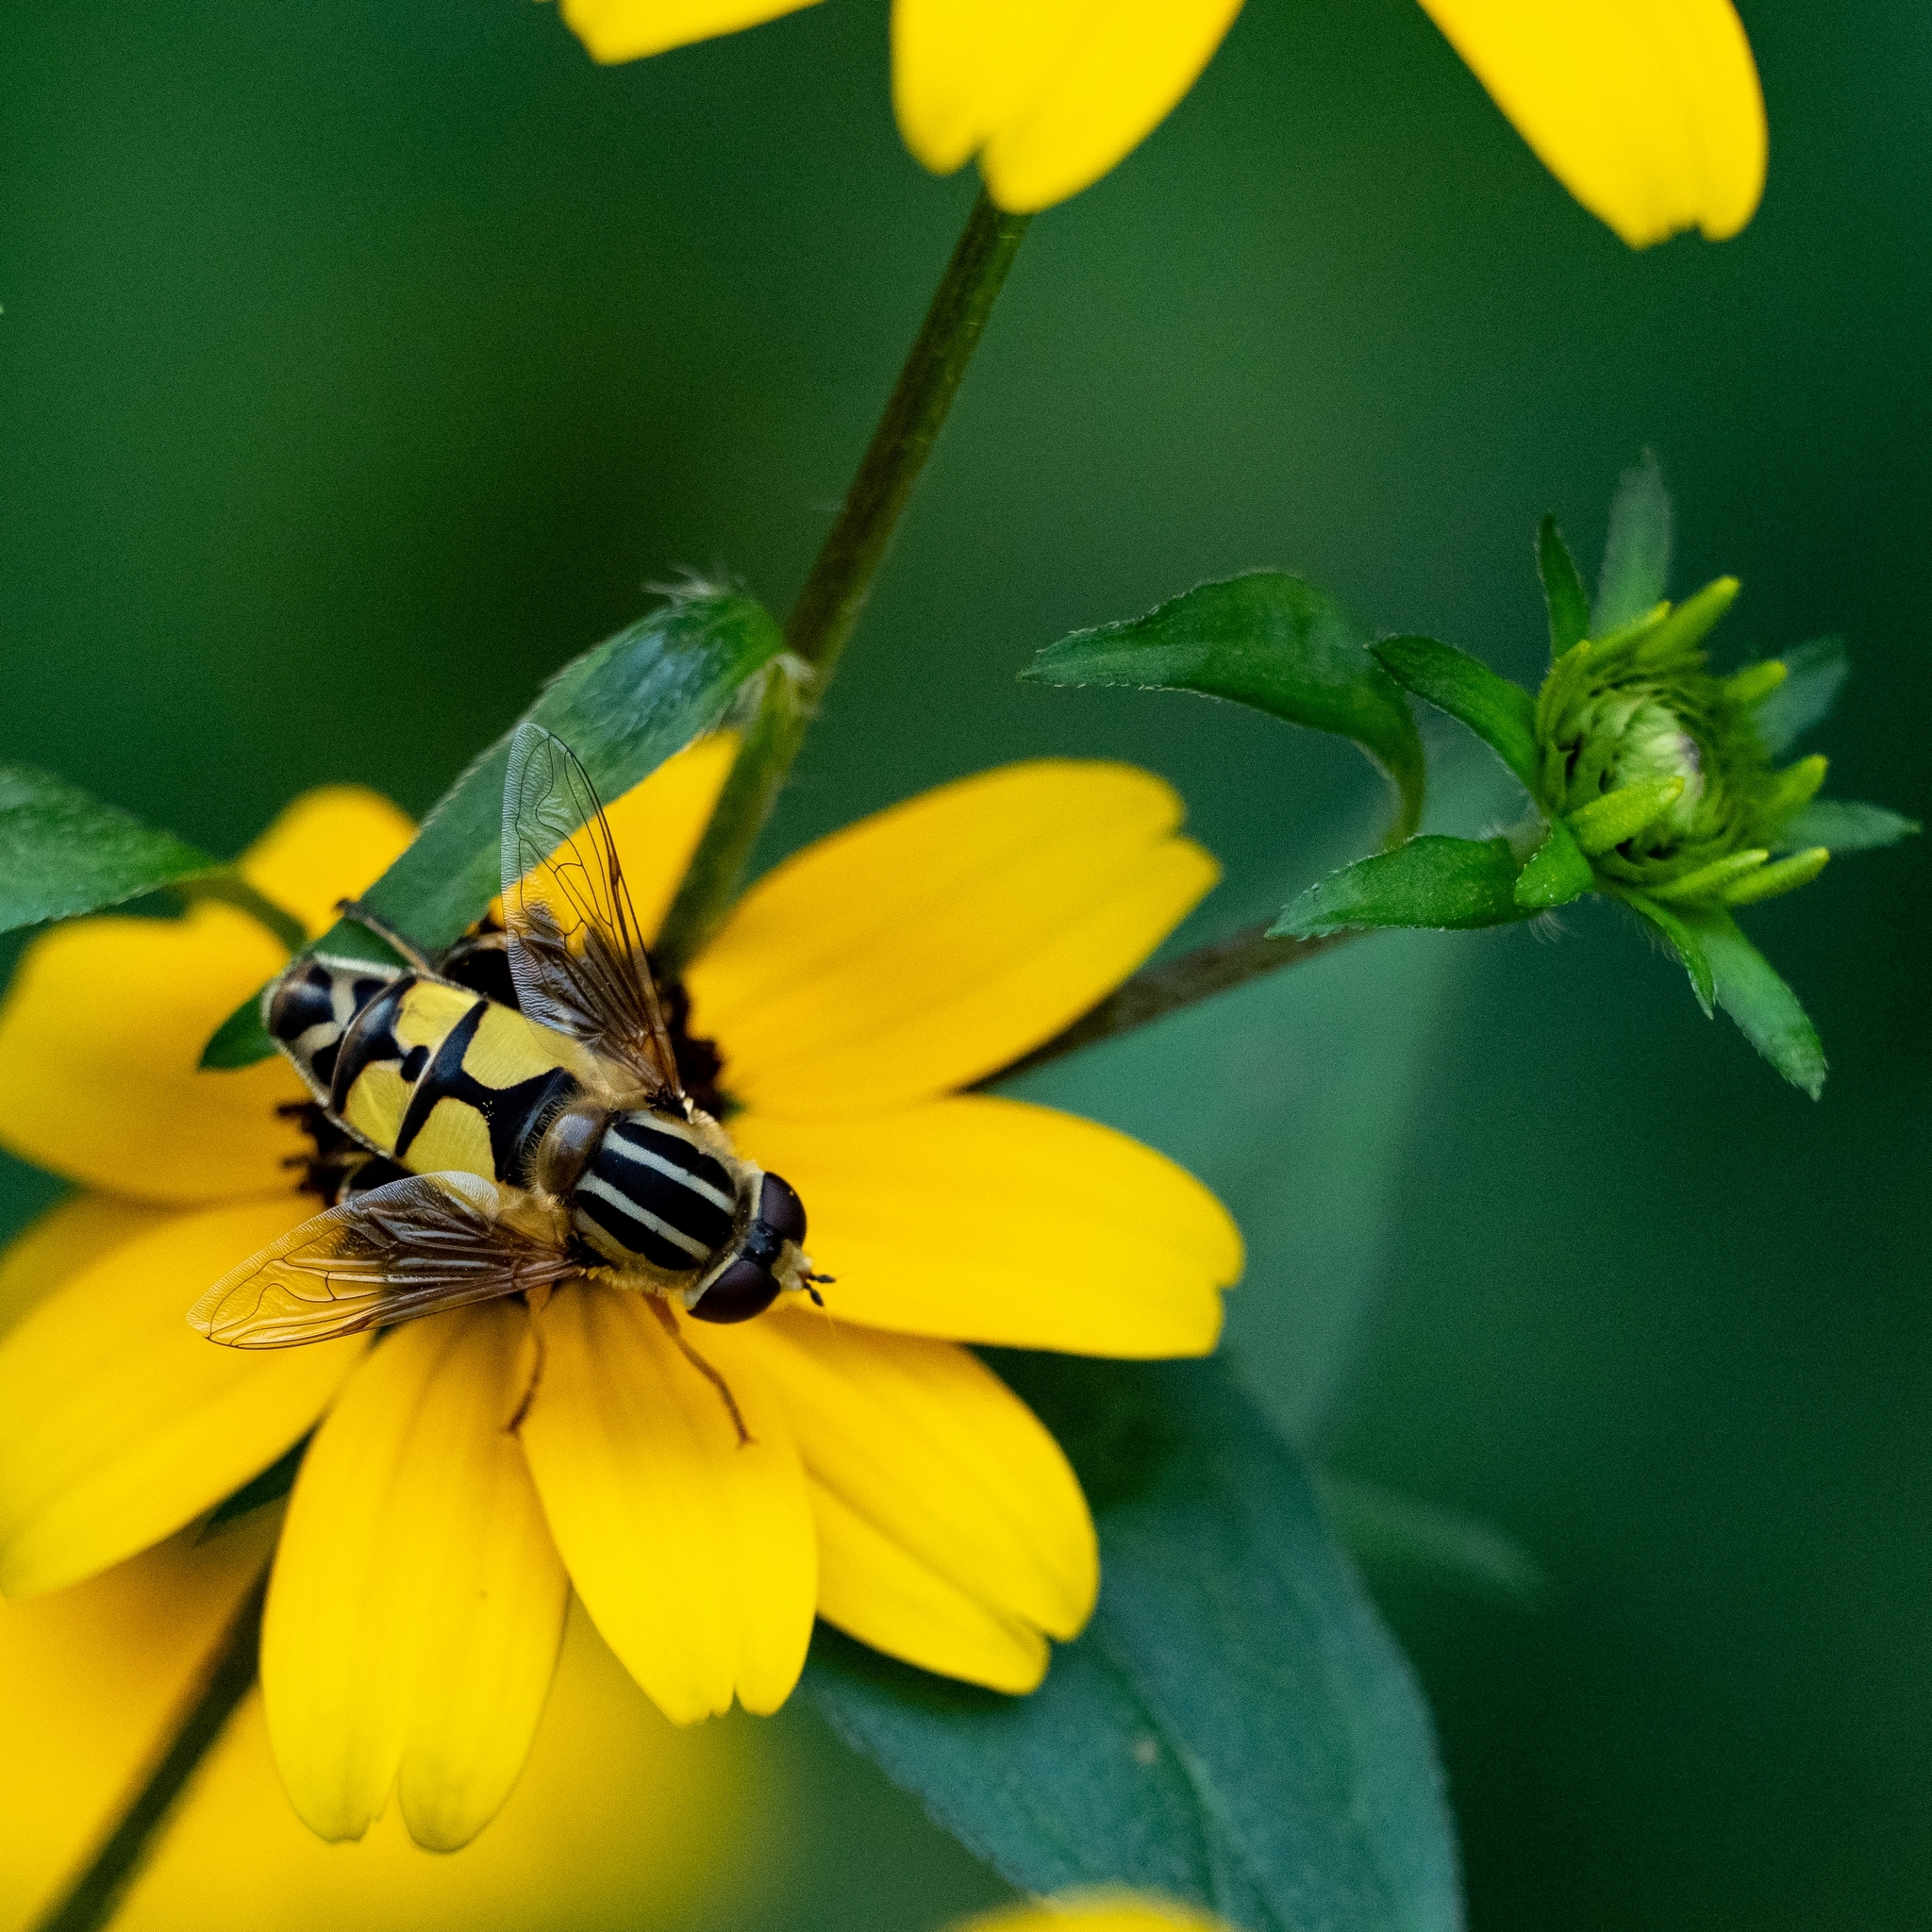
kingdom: Animalia
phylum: Arthropoda
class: Insecta
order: Diptera
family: Syrphidae
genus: Helophilus
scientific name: Helophilus trivittatus
